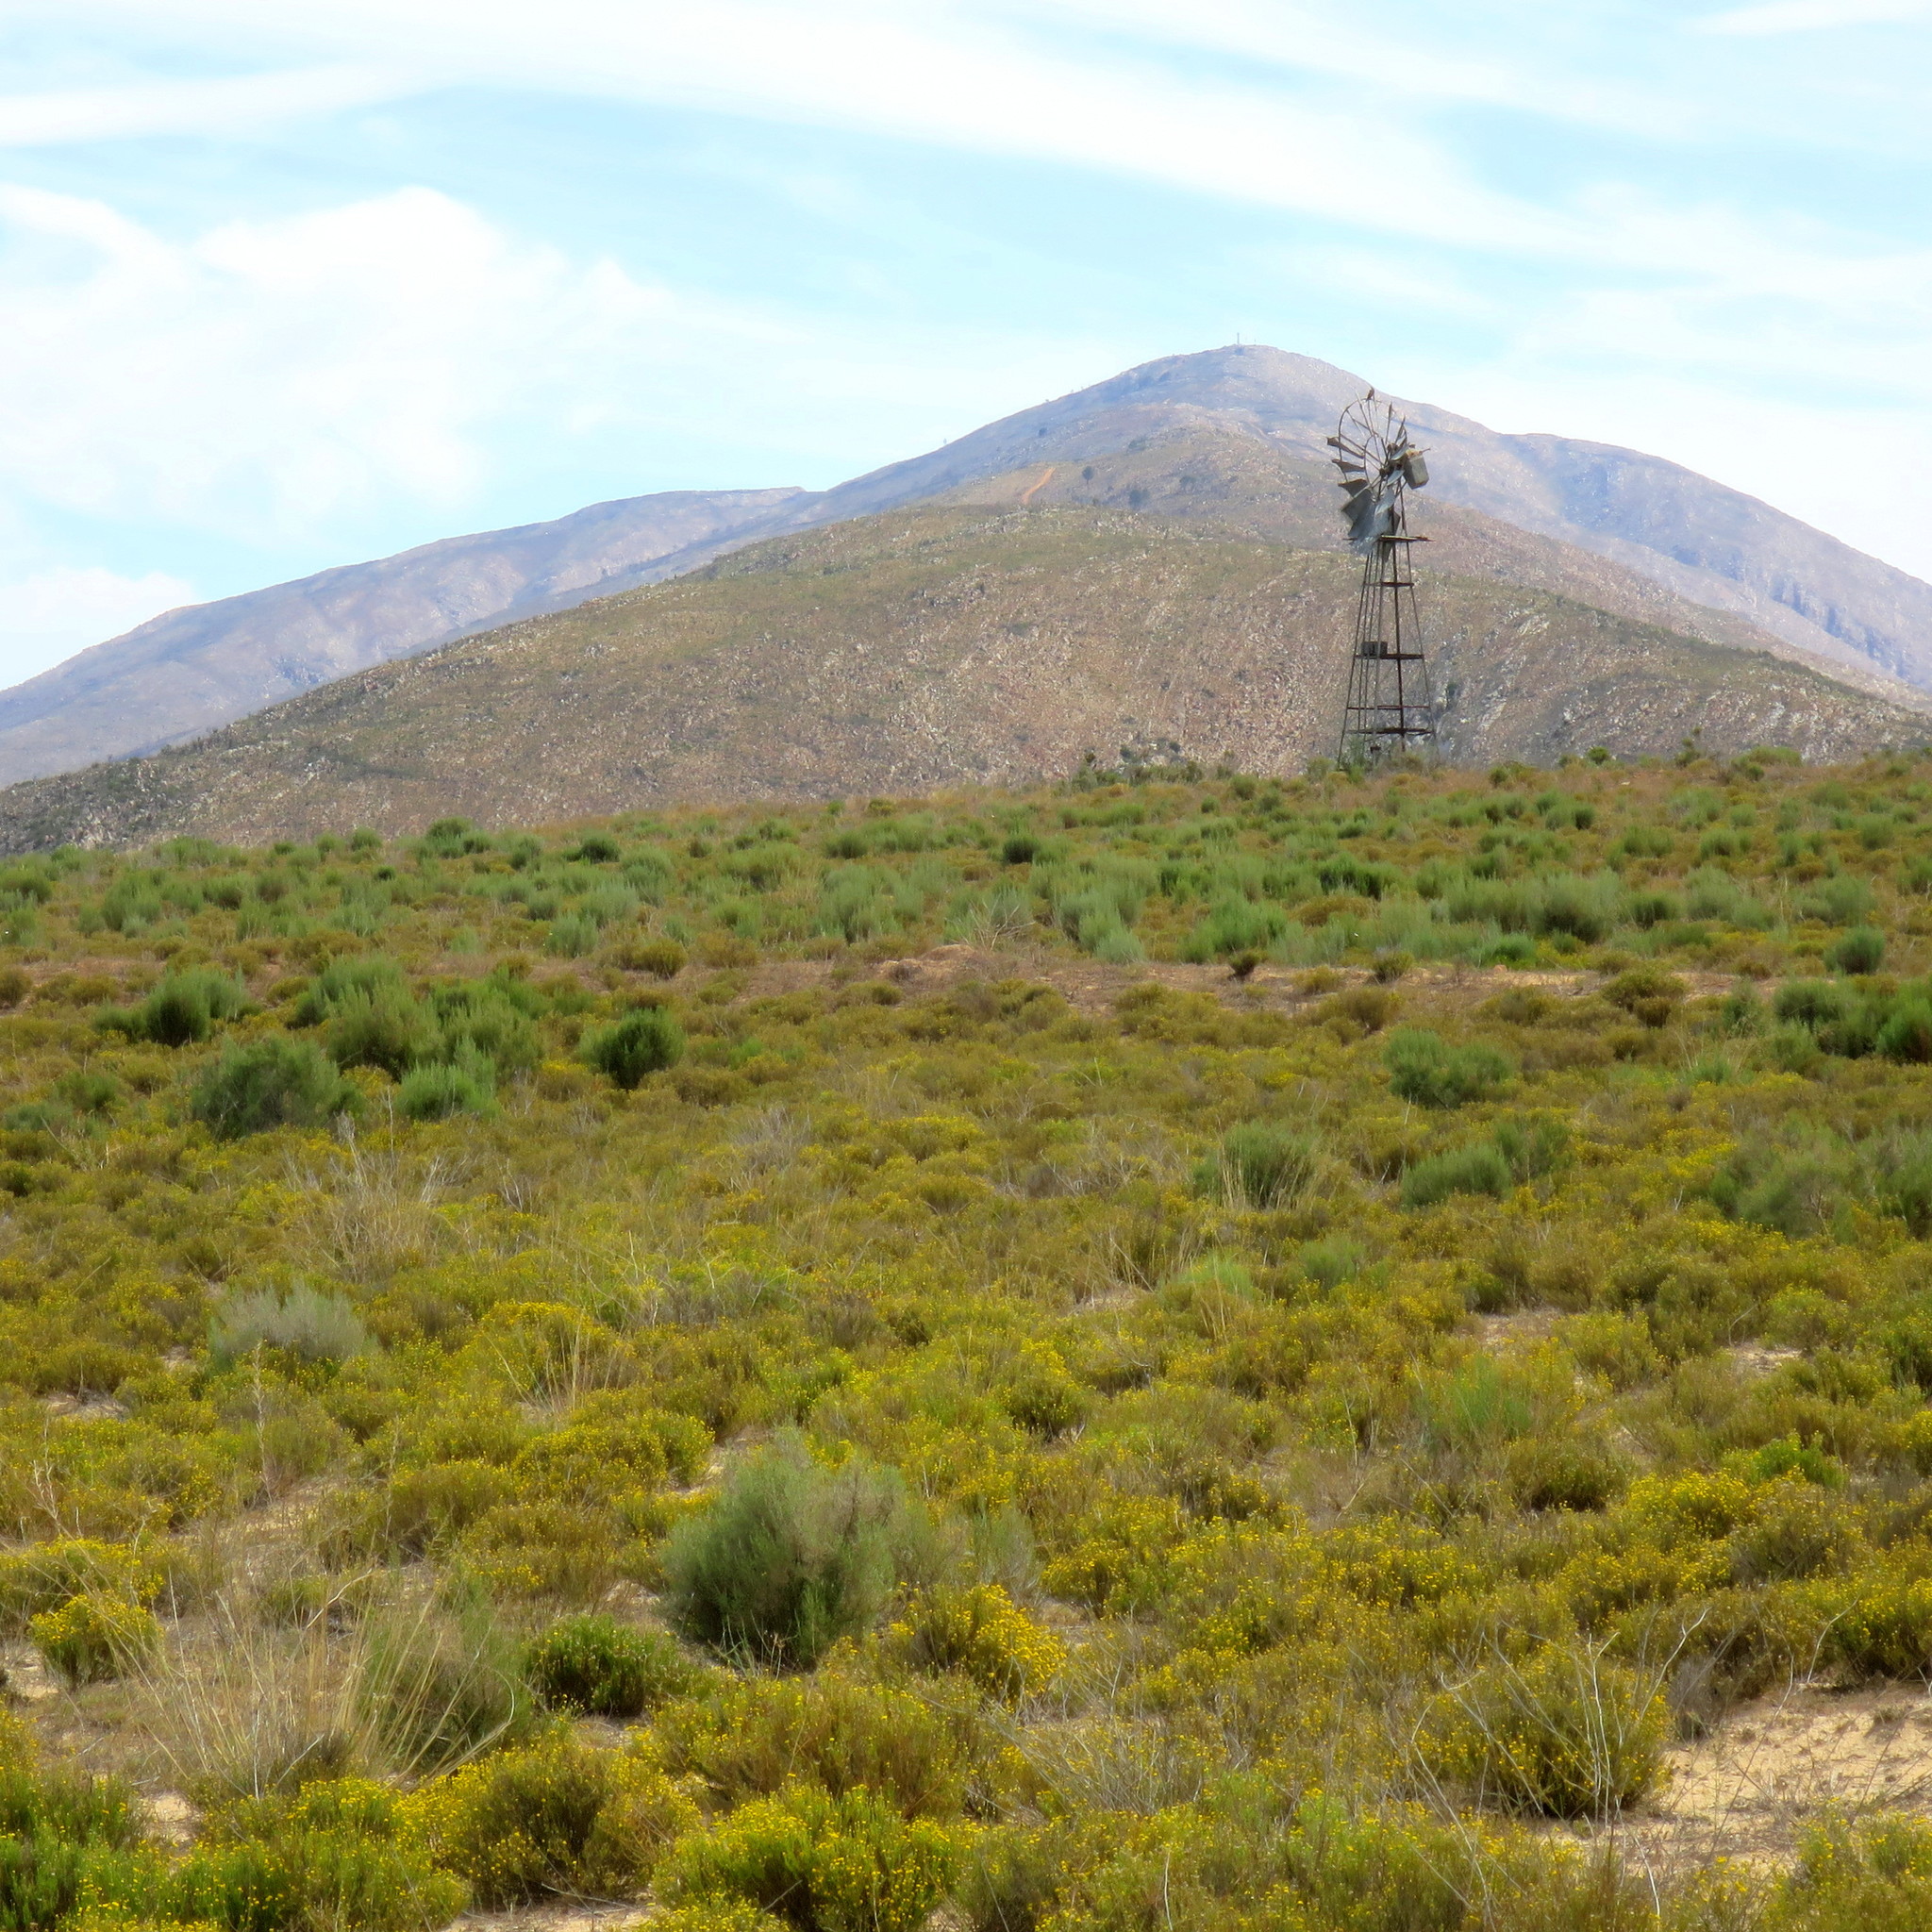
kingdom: Plantae
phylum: Tracheophyta
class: Magnoliopsida
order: Asterales
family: Asteraceae
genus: Chrysocoma
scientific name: Chrysocoma ciliata
